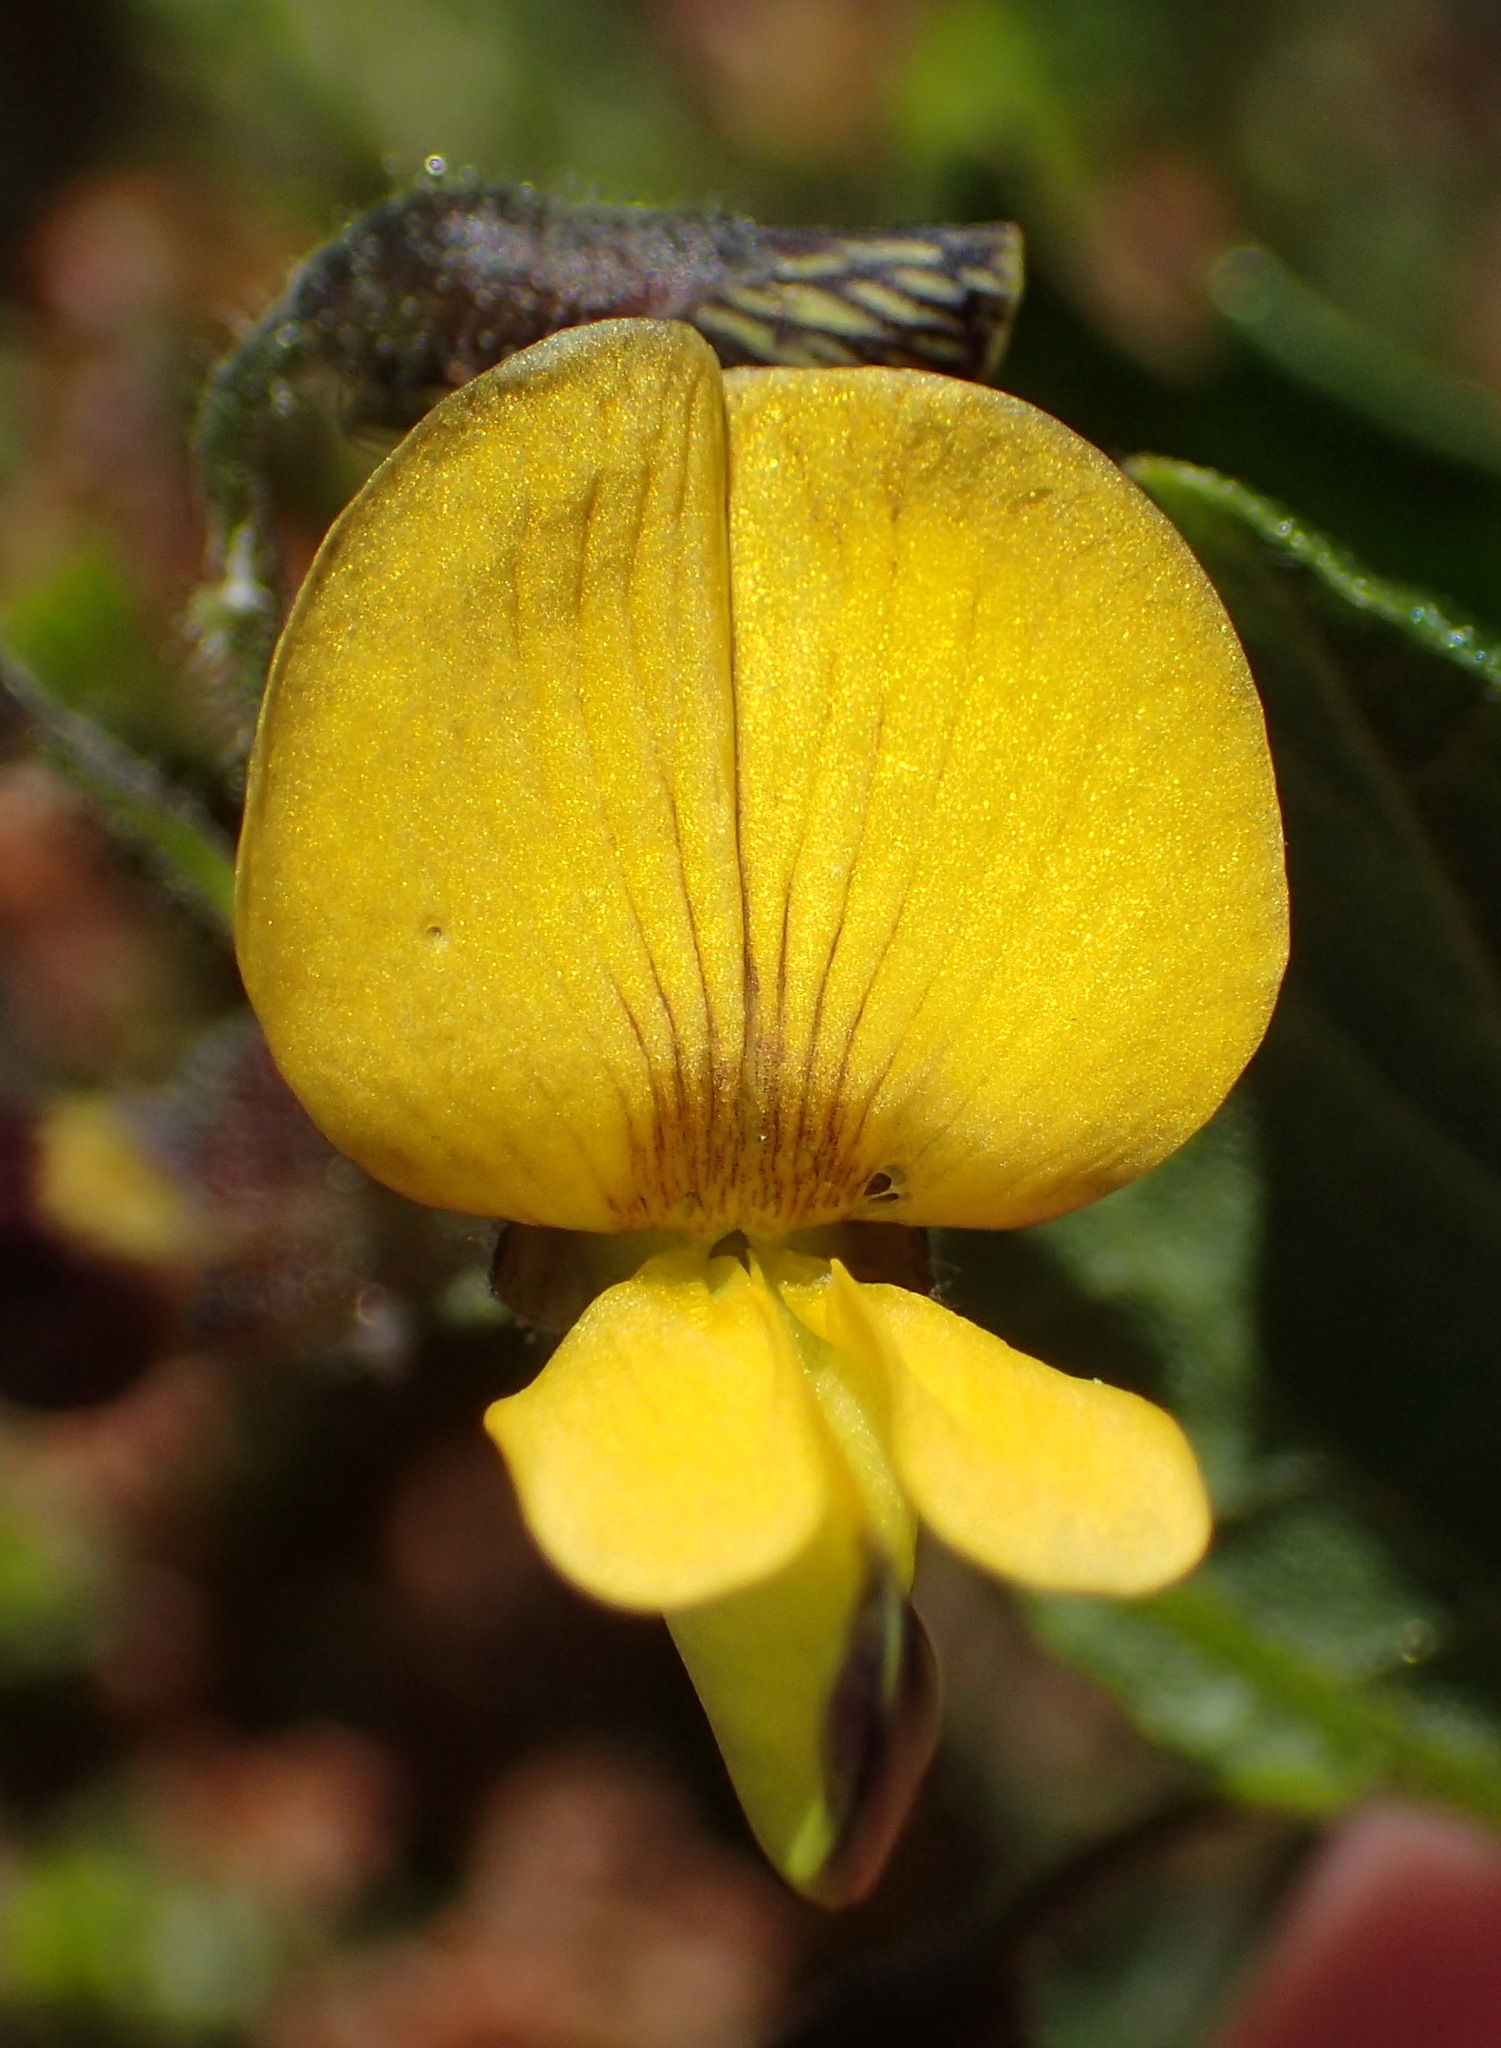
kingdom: Plantae
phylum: Tracheophyta
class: Magnoliopsida
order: Fabales
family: Fabaceae
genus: Rhynchosia
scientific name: Rhynchosia caribaea
